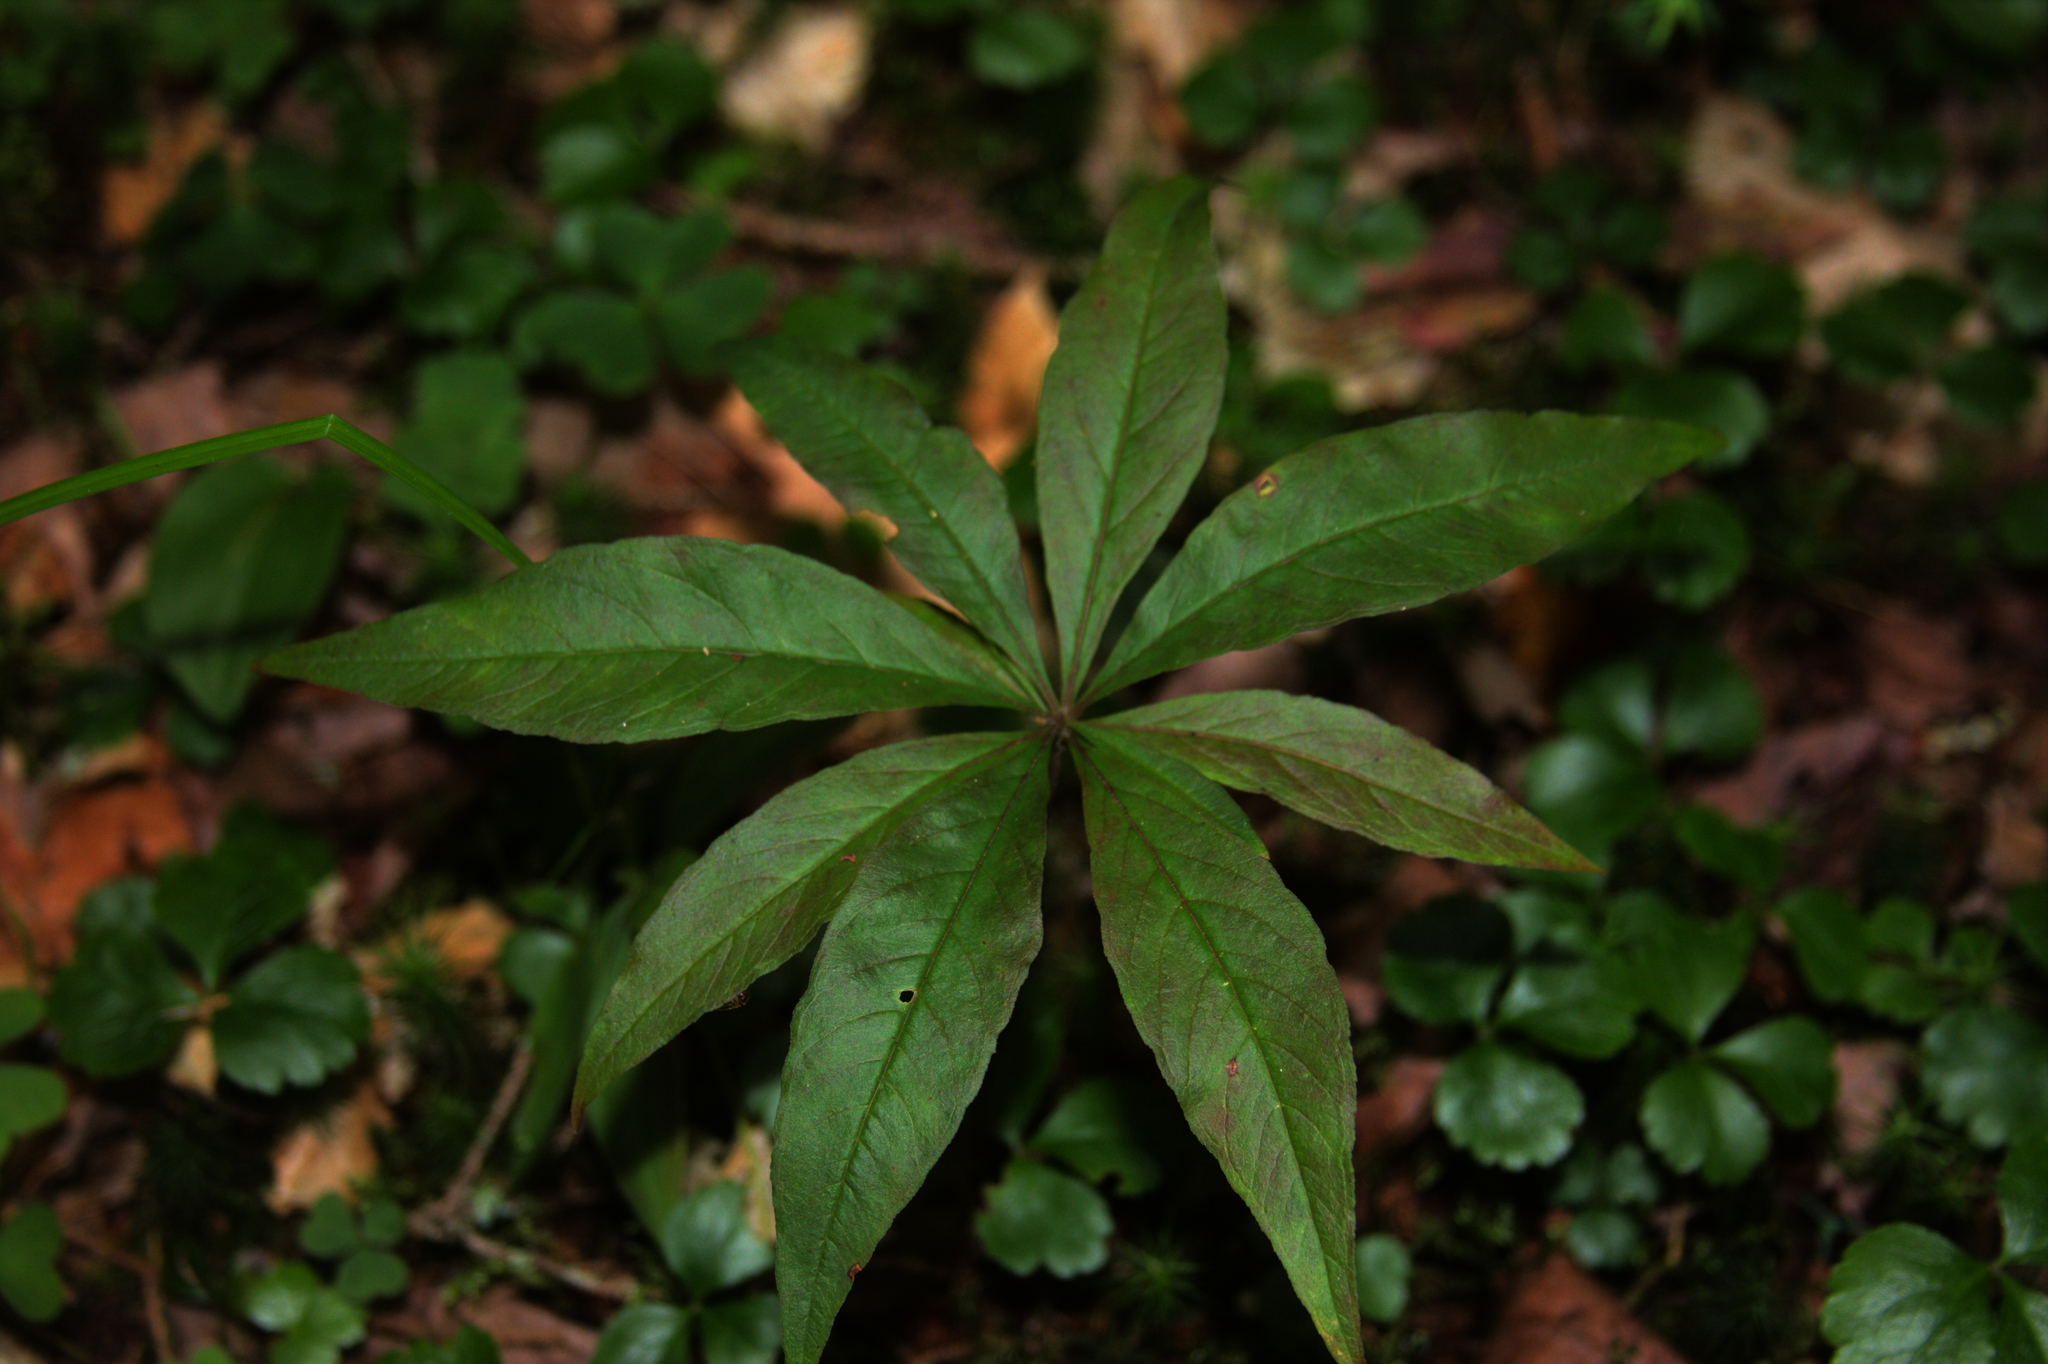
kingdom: Plantae
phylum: Tracheophyta
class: Magnoliopsida
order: Ericales
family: Primulaceae
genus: Lysimachia
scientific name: Lysimachia borealis
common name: American starflower
